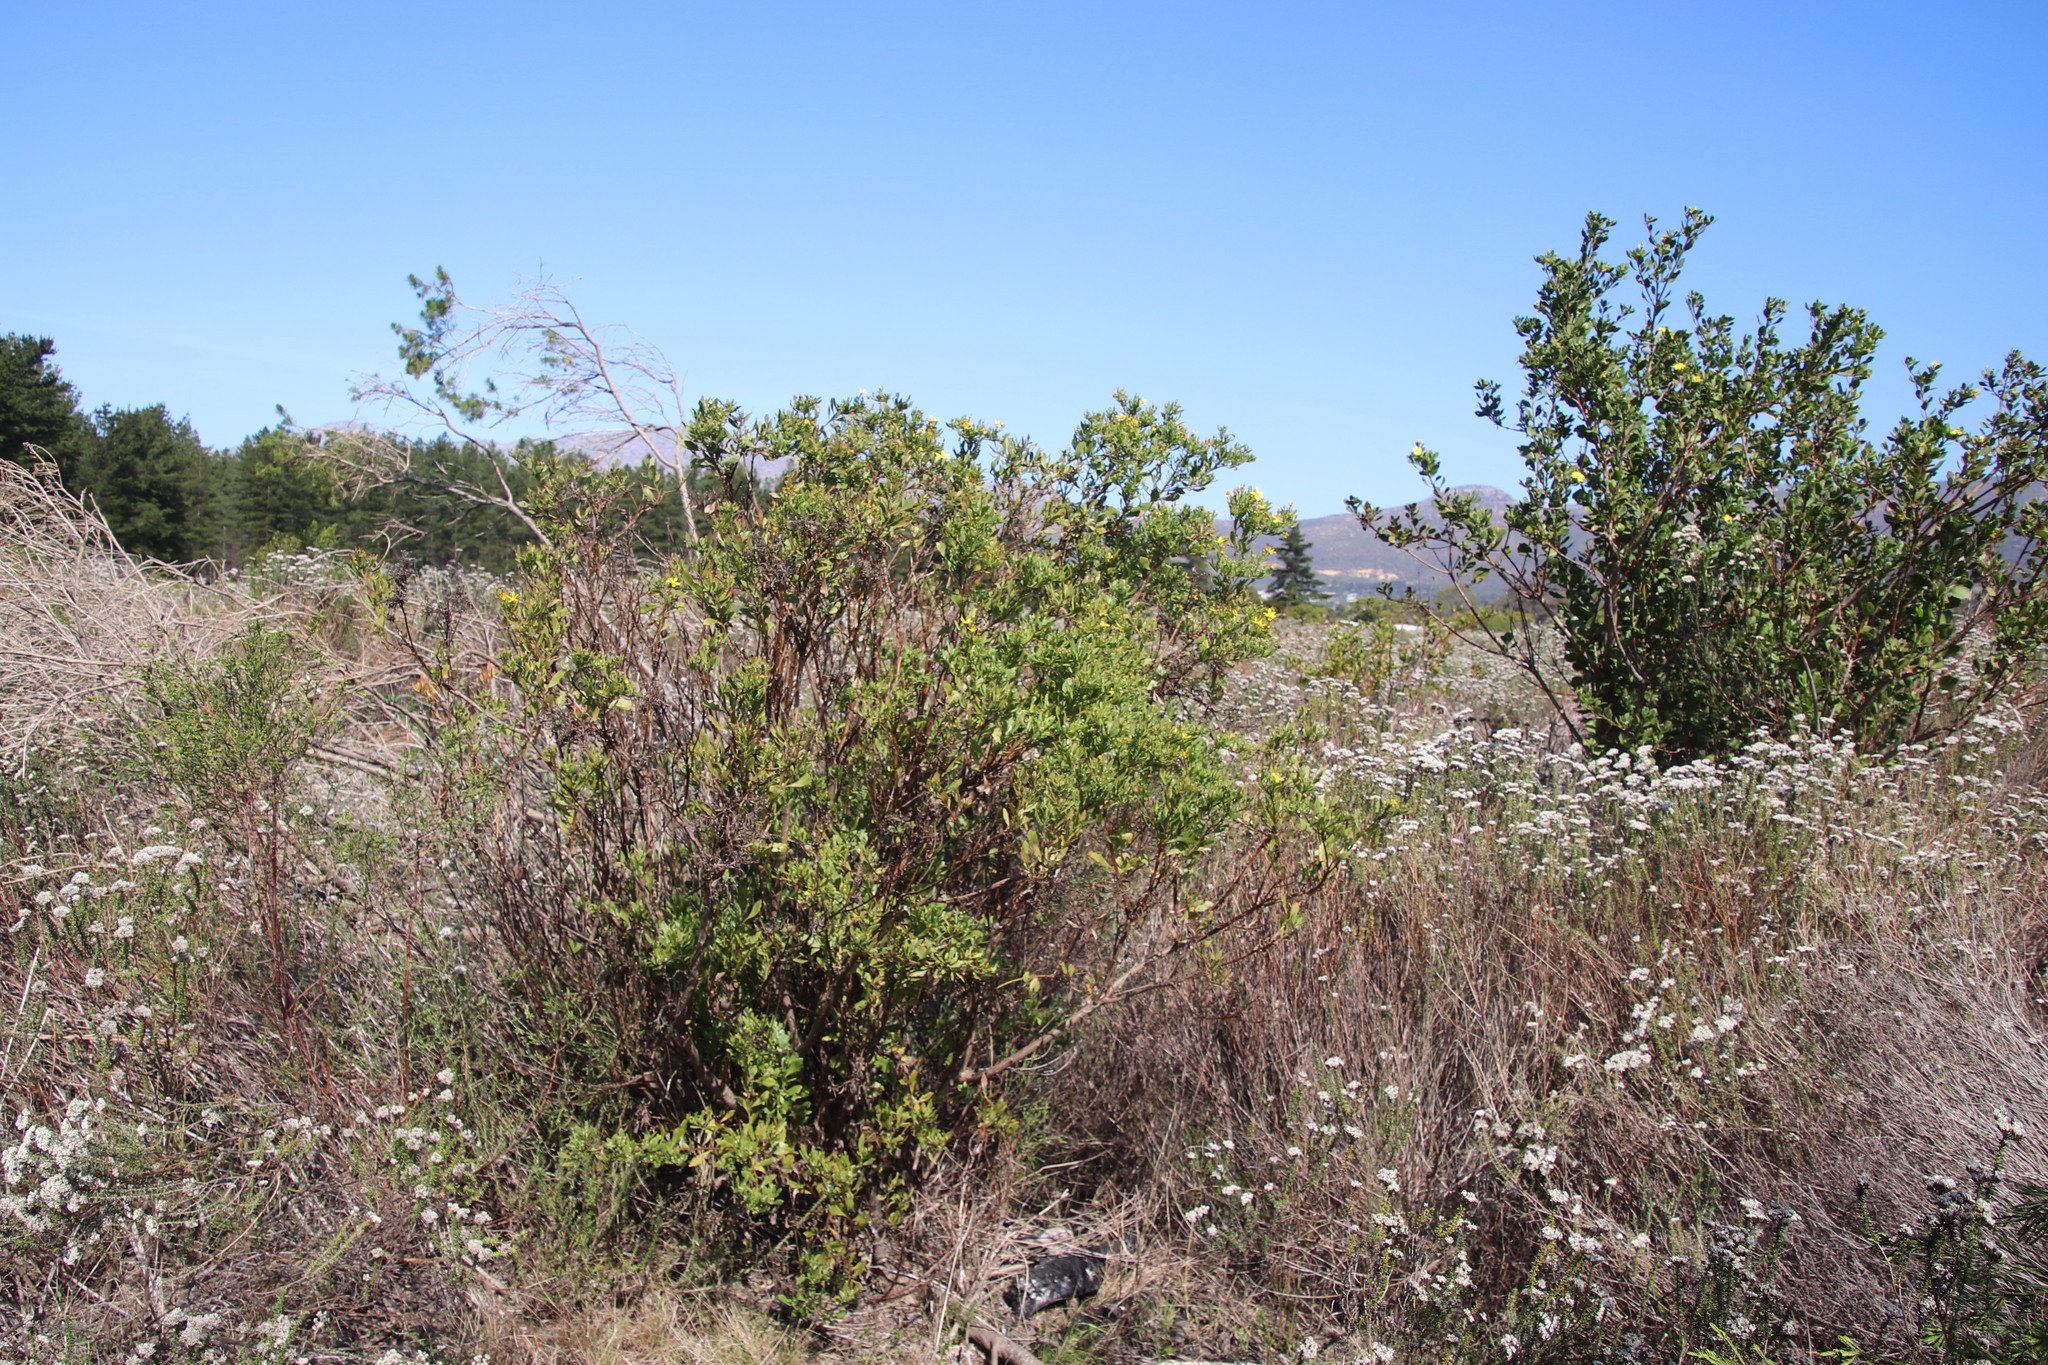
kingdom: Plantae
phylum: Tracheophyta
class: Magnoliopsida
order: Asterales
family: Asteraceae
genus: Osteospermum
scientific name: Osteospermum moniliferum
